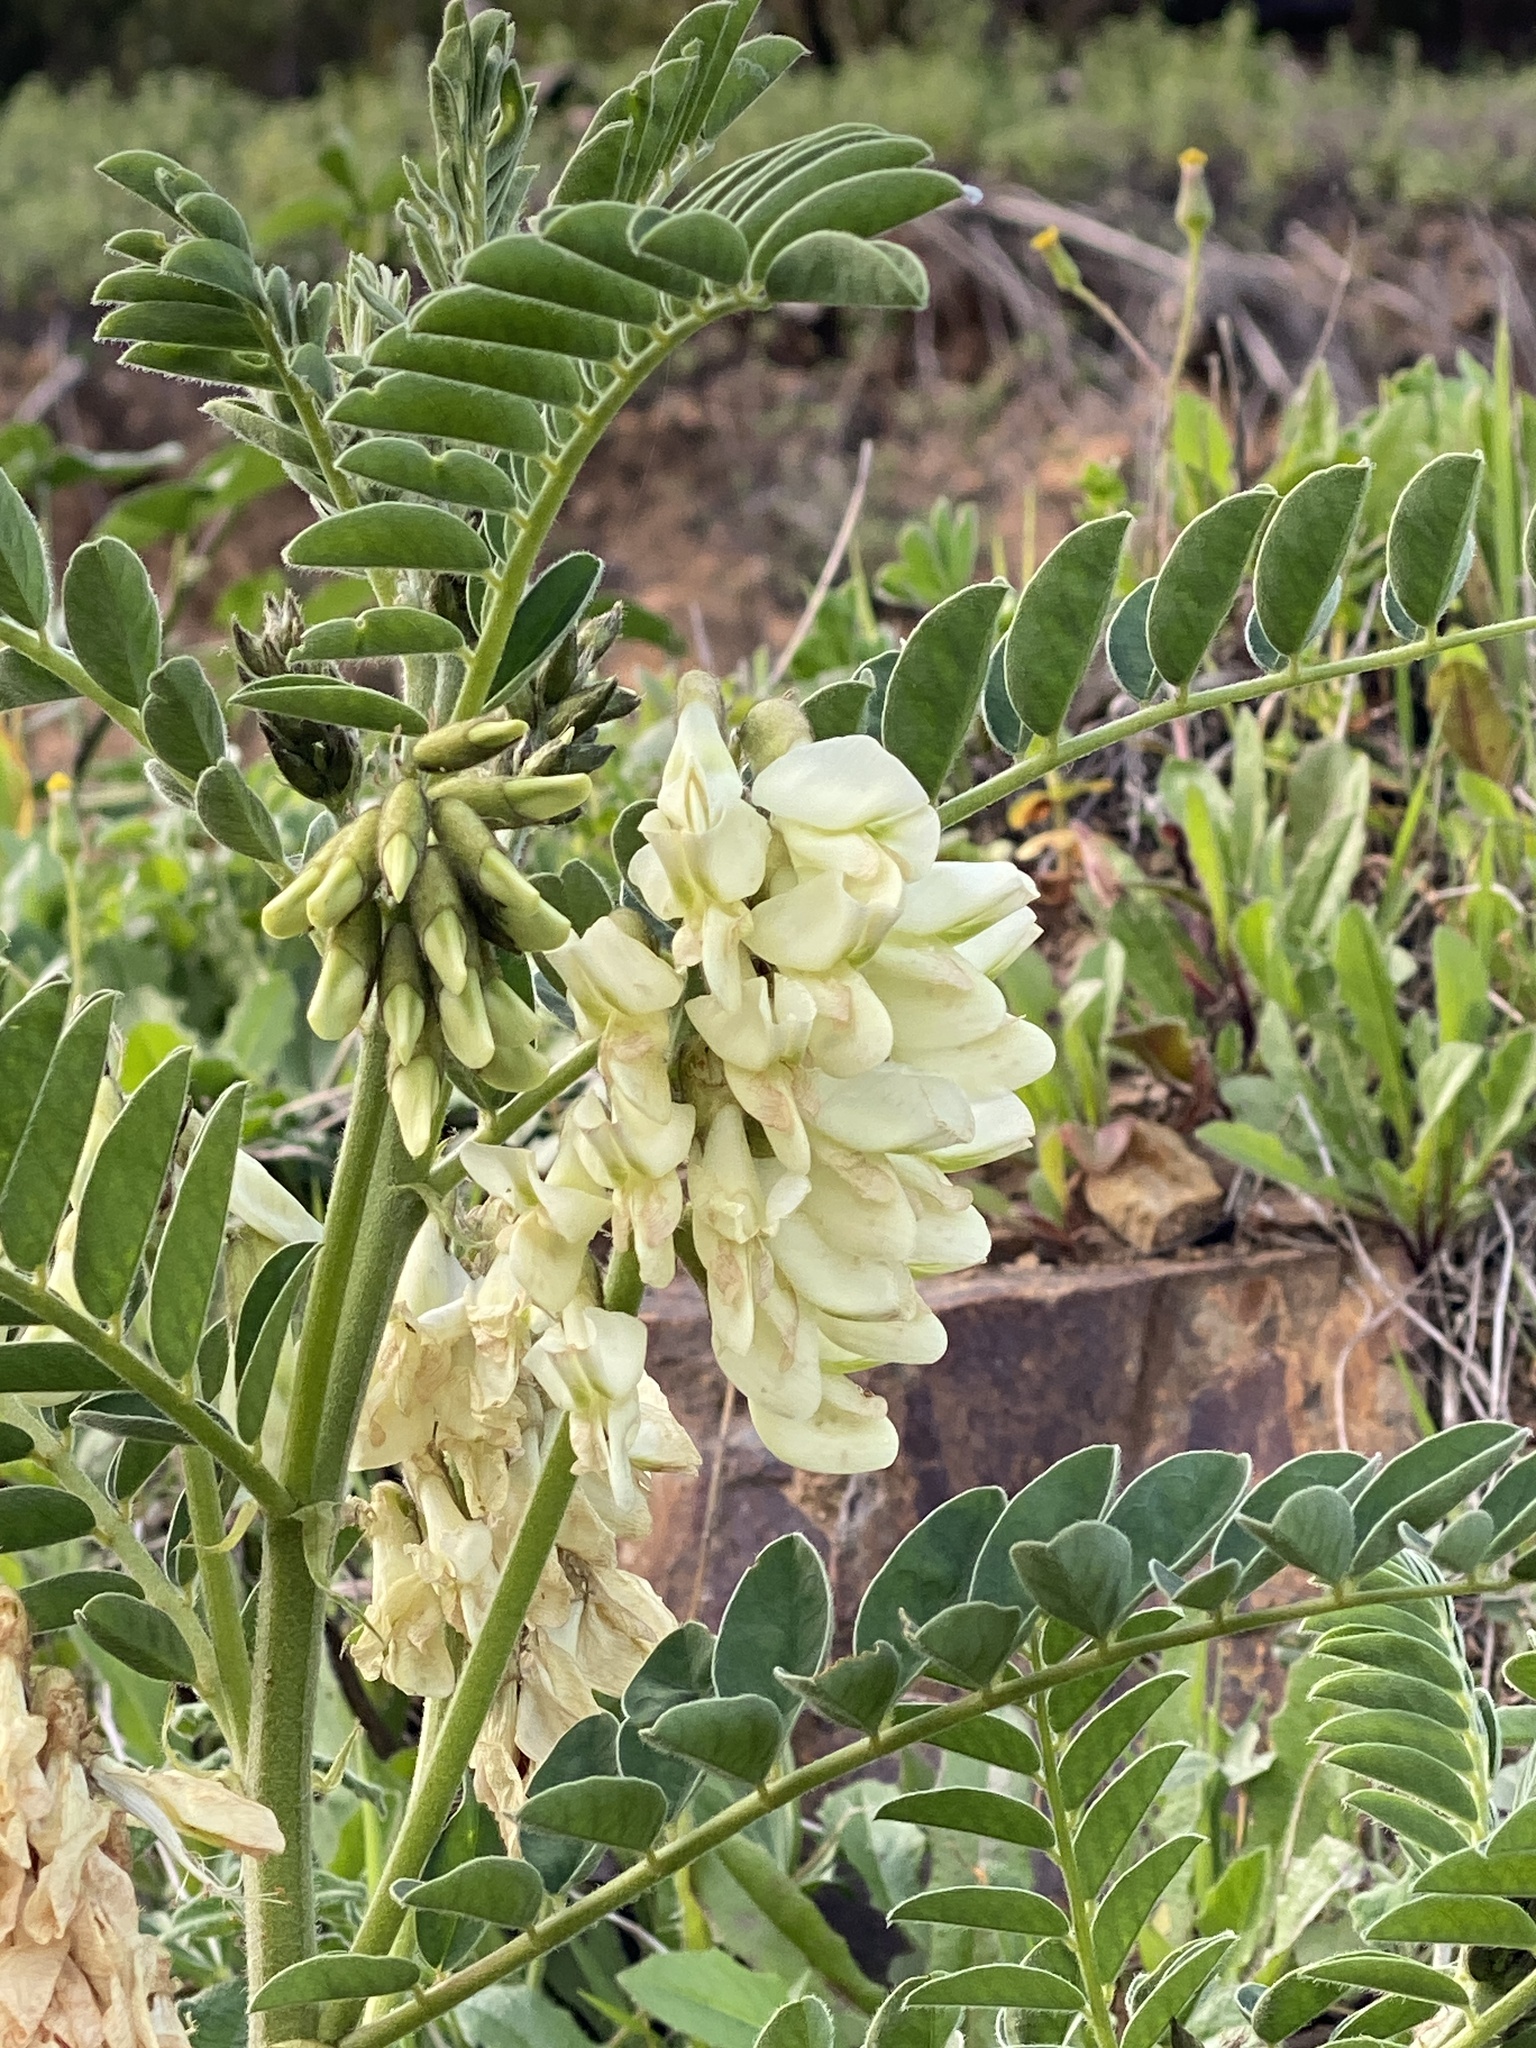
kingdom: Plantae
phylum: Tracheophyta
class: Magnoliopsida
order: Fabales
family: Fabaceae
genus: Erophaca
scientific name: Erophaca baetica
